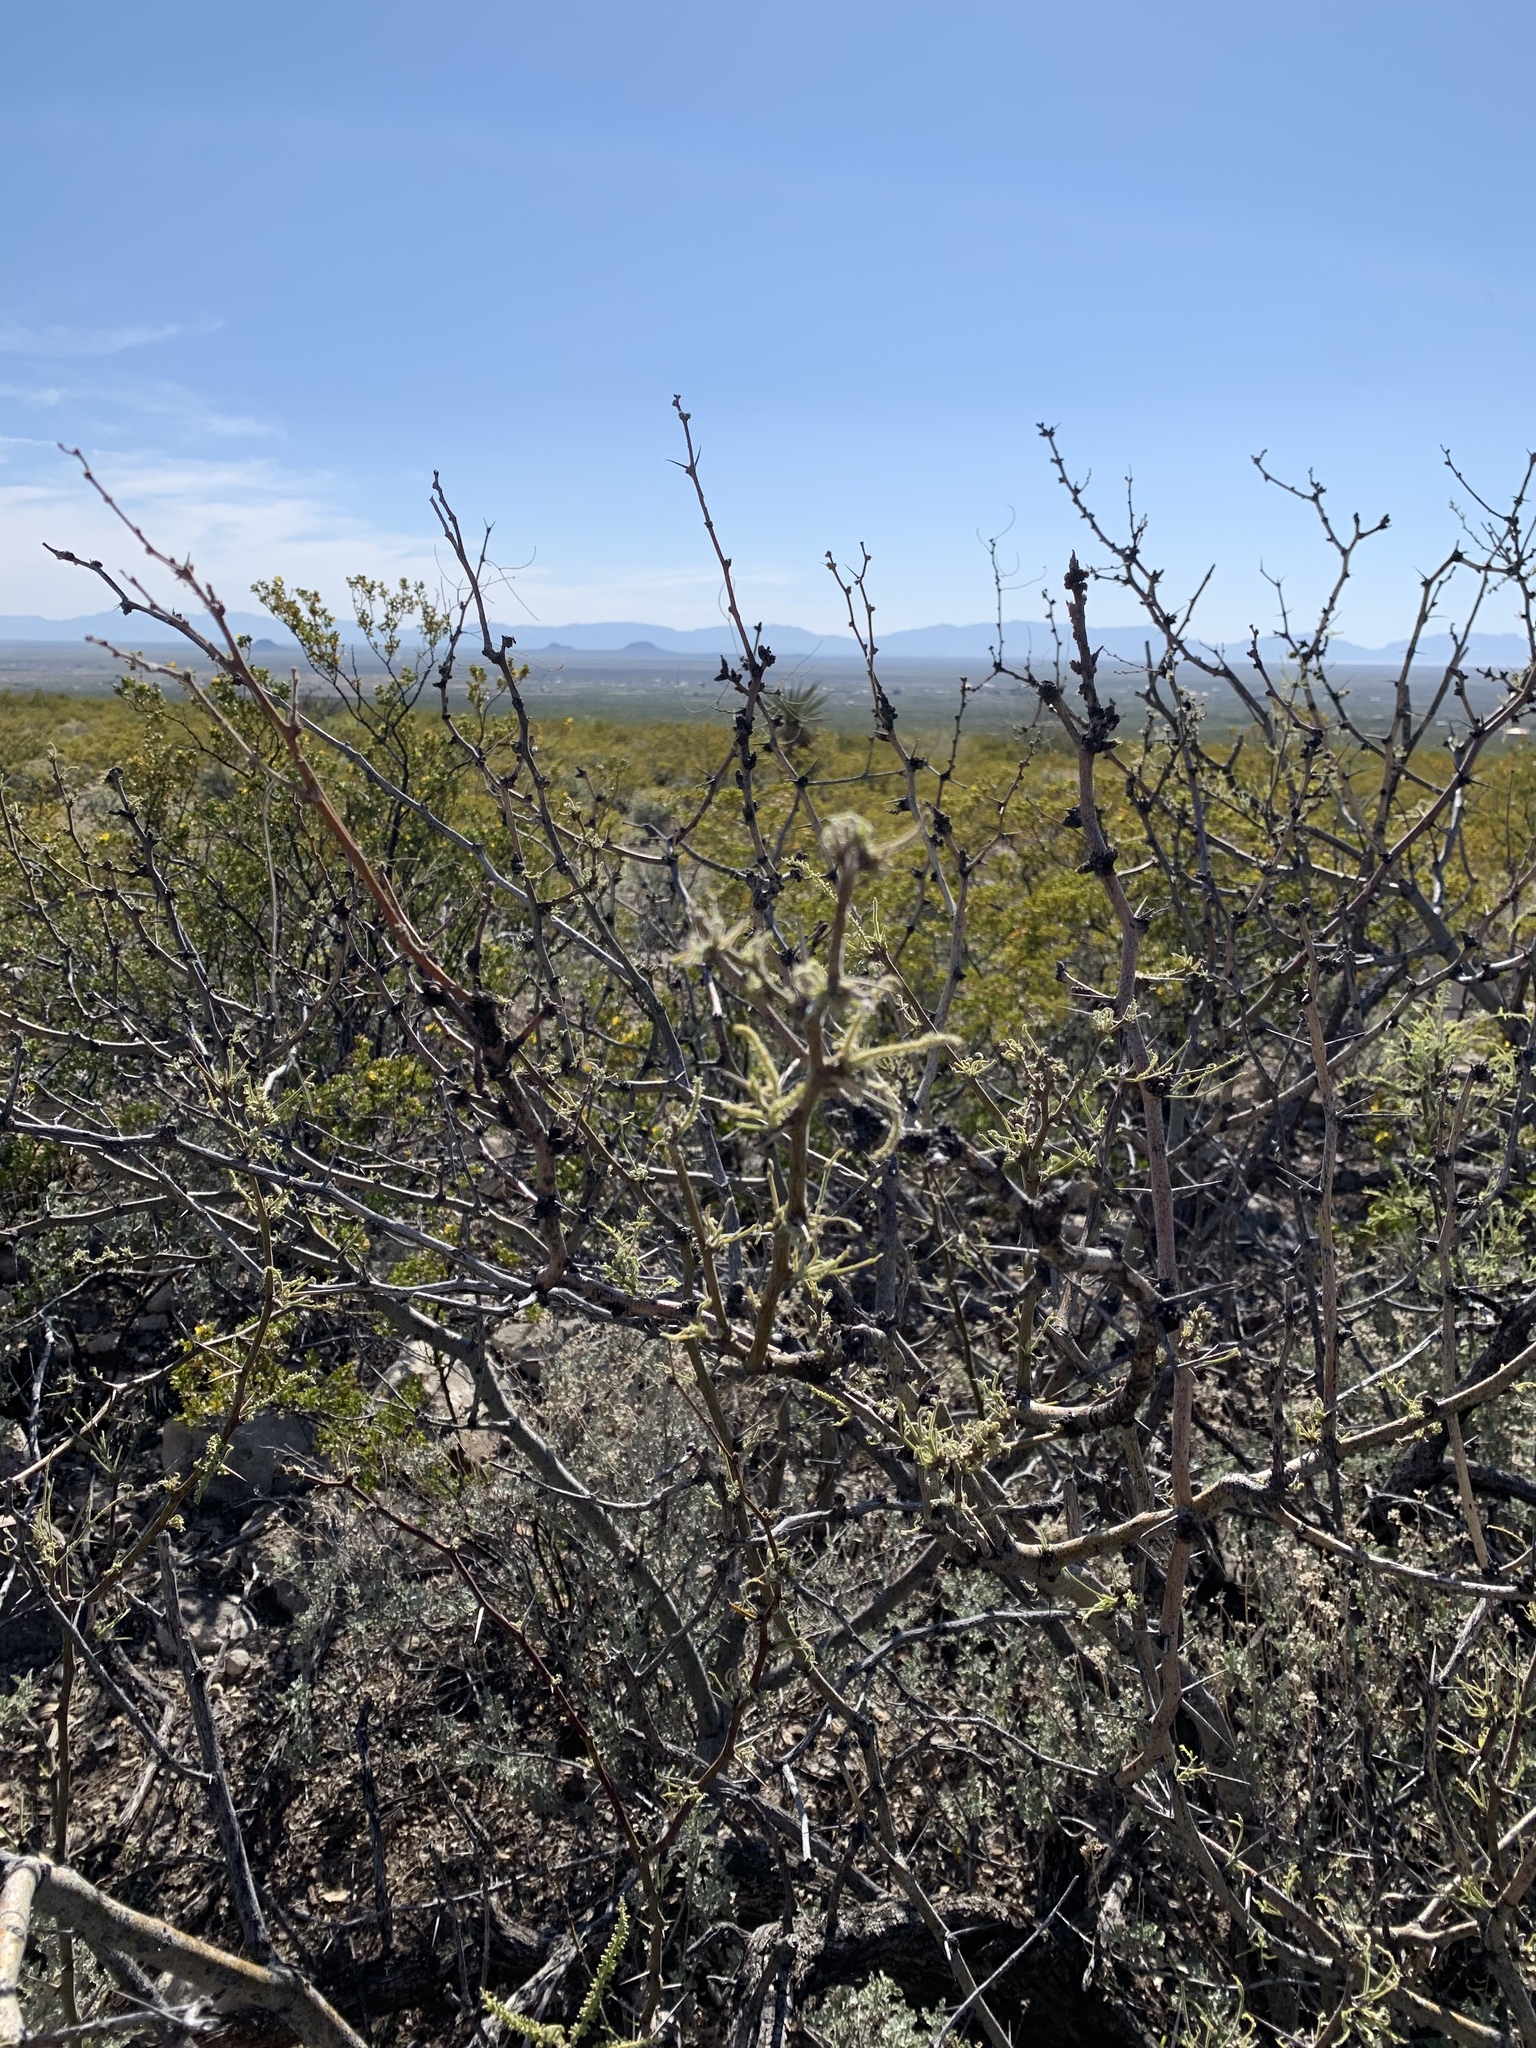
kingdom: Plantae
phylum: Tracheophyta
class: Magnoliopsida
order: Fabales
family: Fabaceae
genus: Prosopis
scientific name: Prosopis glandulosa
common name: Honey mesquite
